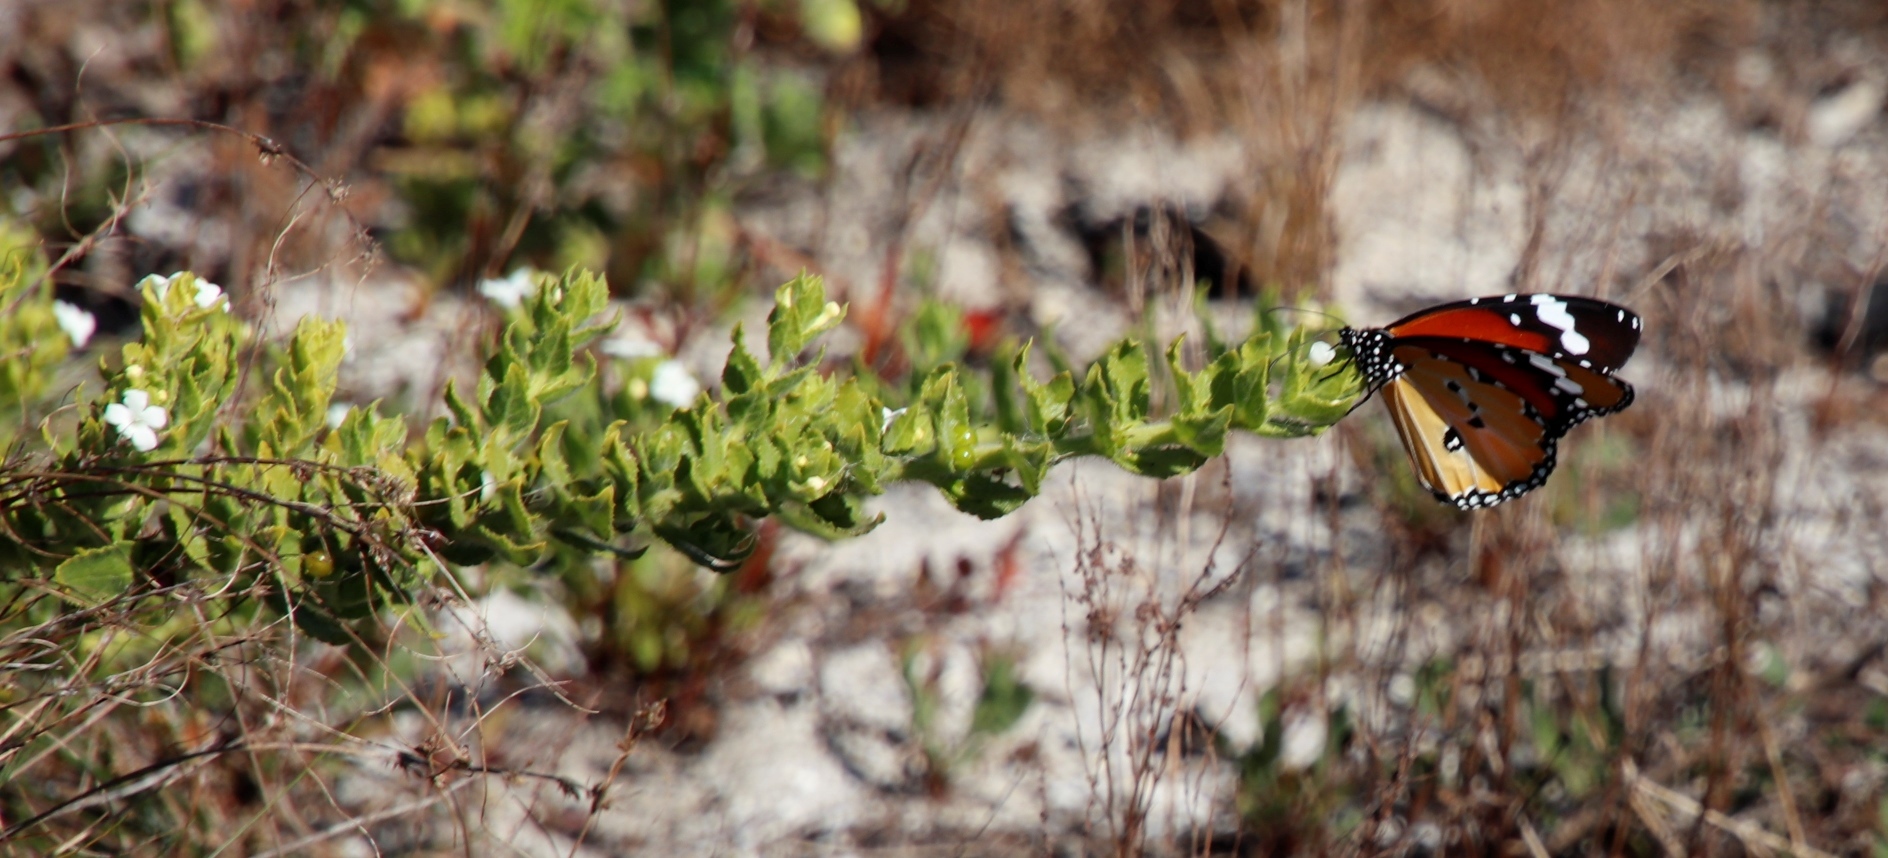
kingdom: Plantae
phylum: Tracheophyta
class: Magnoliopsida
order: Lamiales
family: Scrophulariaceae
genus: Oftia
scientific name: Oftia africana
